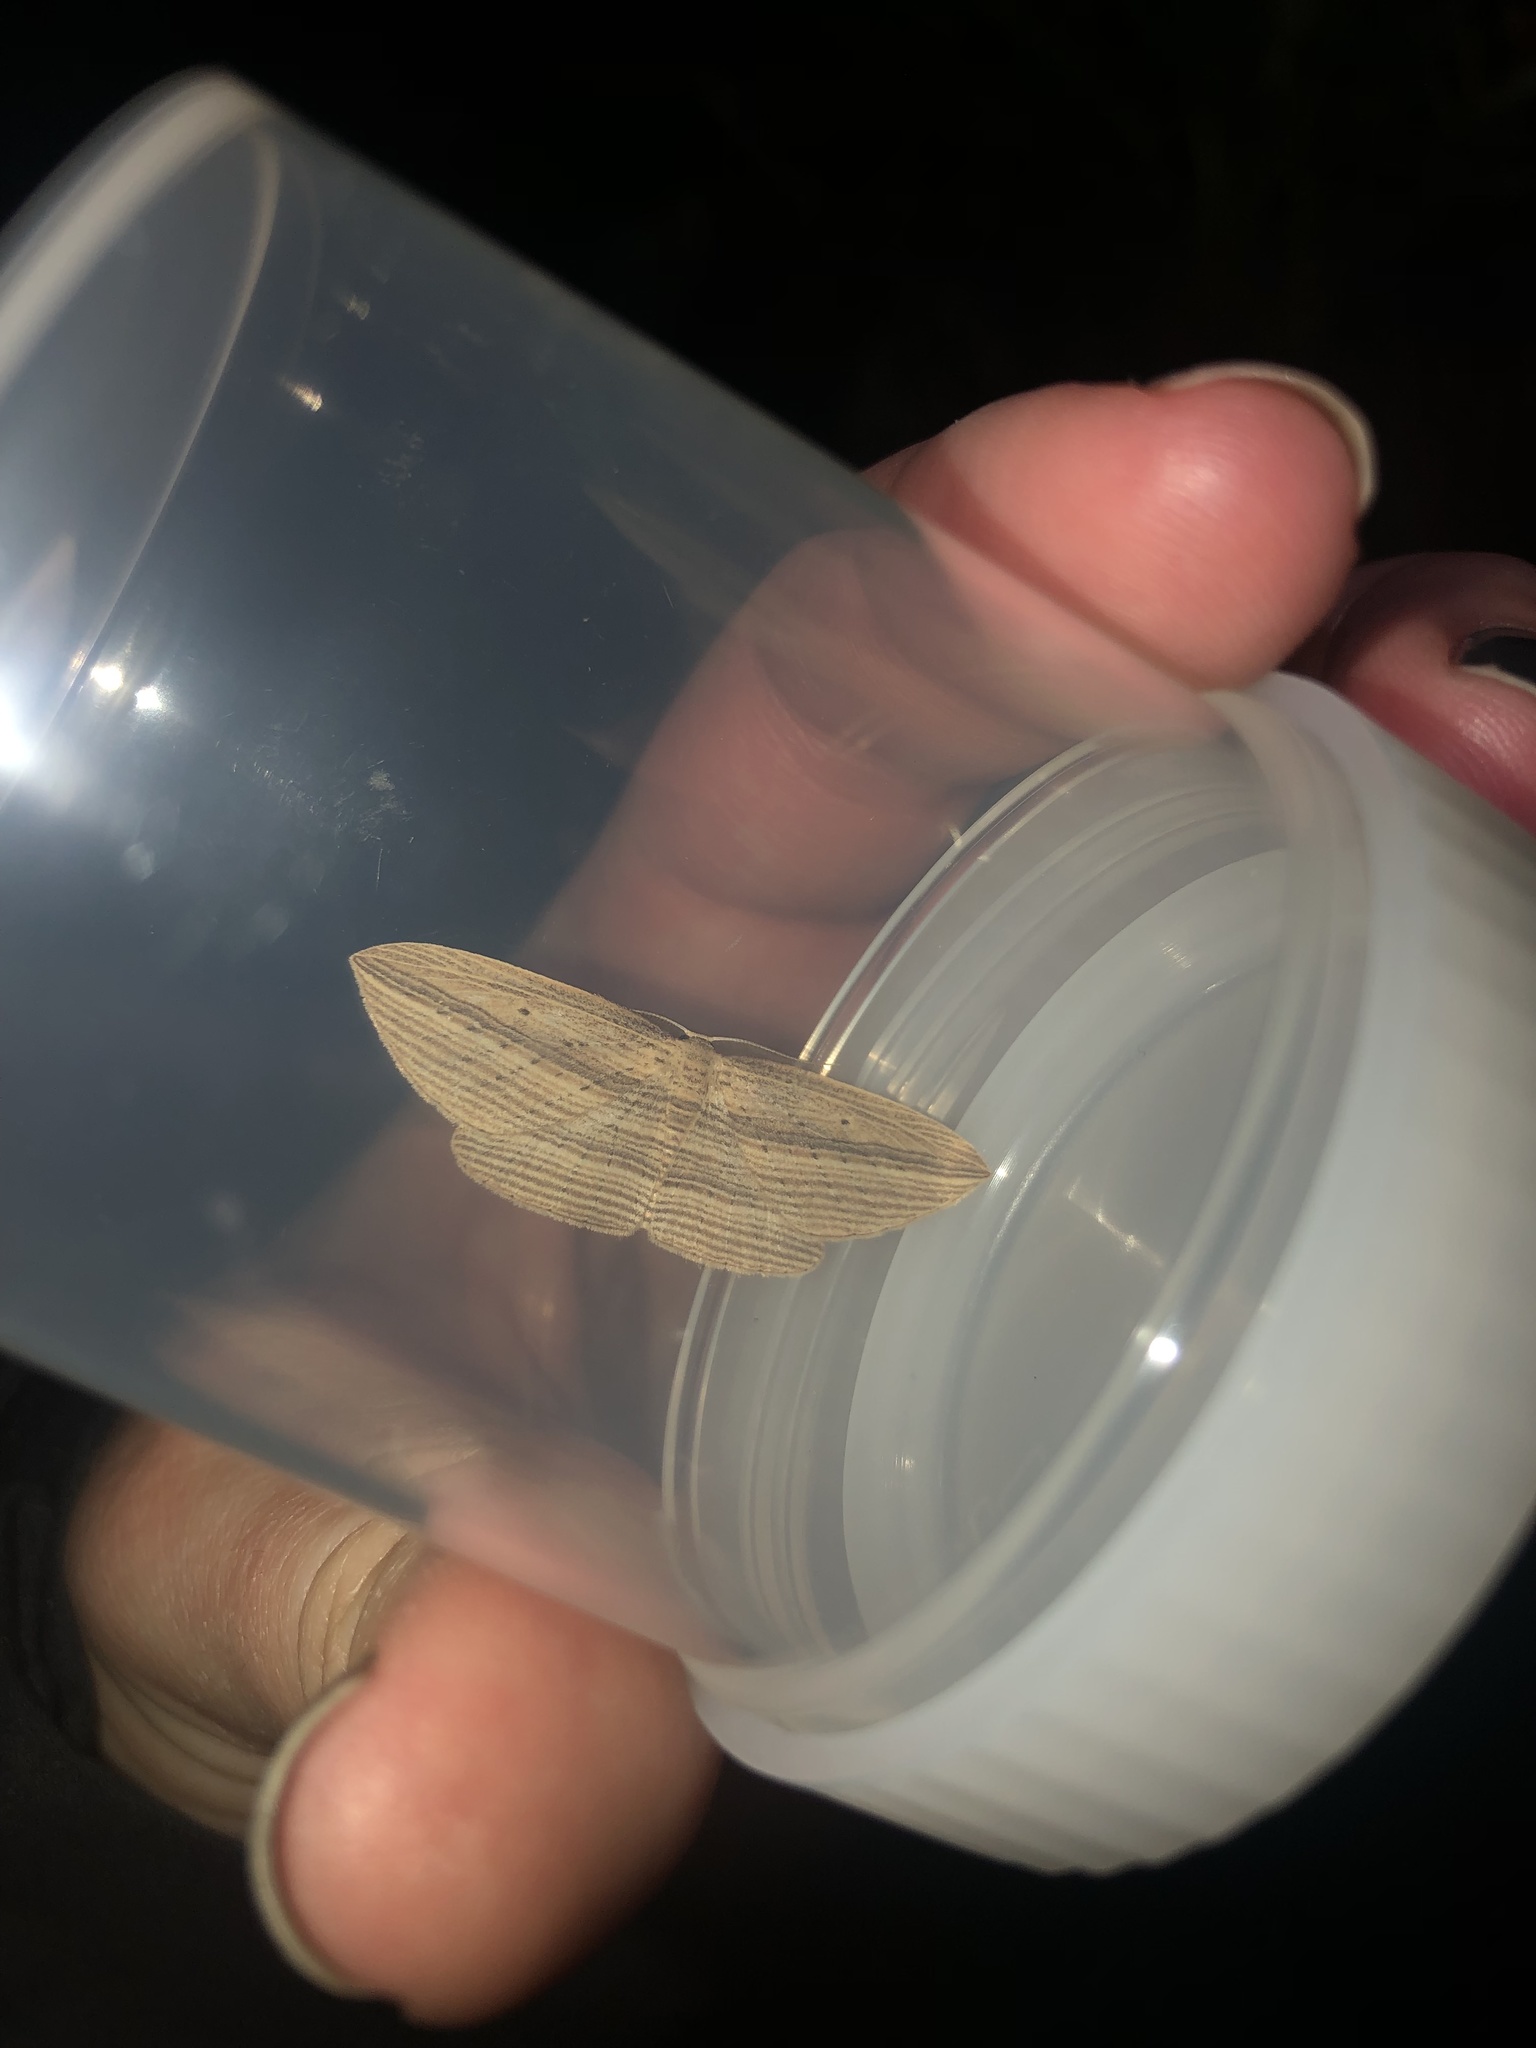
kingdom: Animalia
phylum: Arthropoda
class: Insecta
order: Lepidoptera
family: Geometridae
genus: Epiphryne
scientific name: Epiphryne verriculata
